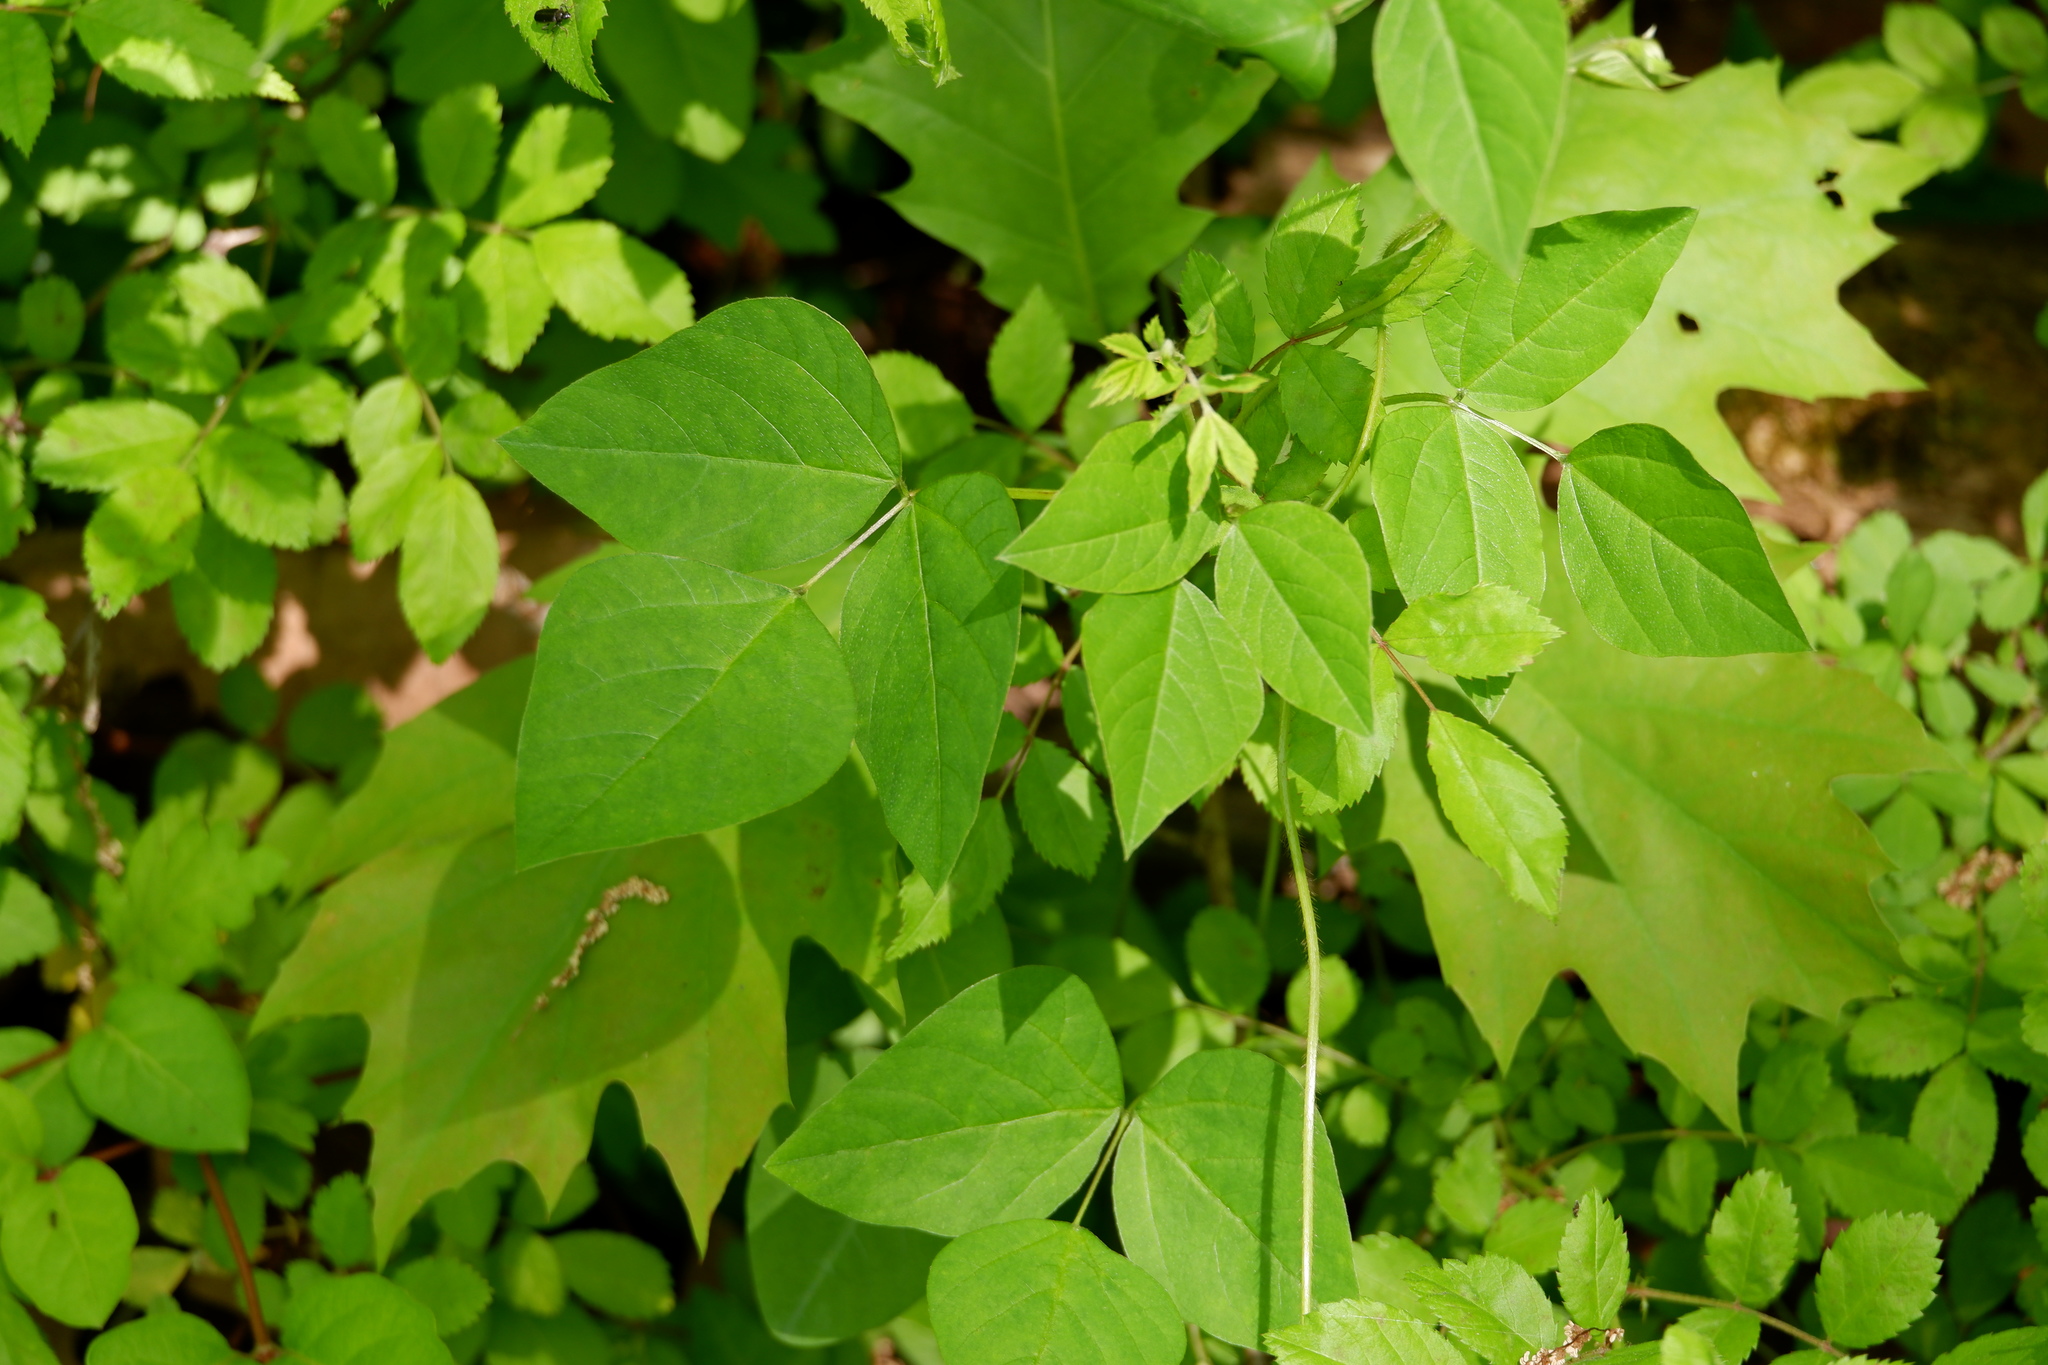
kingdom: Plantae
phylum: Tracheophyta
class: Magnoliopsida
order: Fabales
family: Fabaceae
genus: Amphicarpaea
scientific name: Amphicarpaea bracteata
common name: American hog peanut
